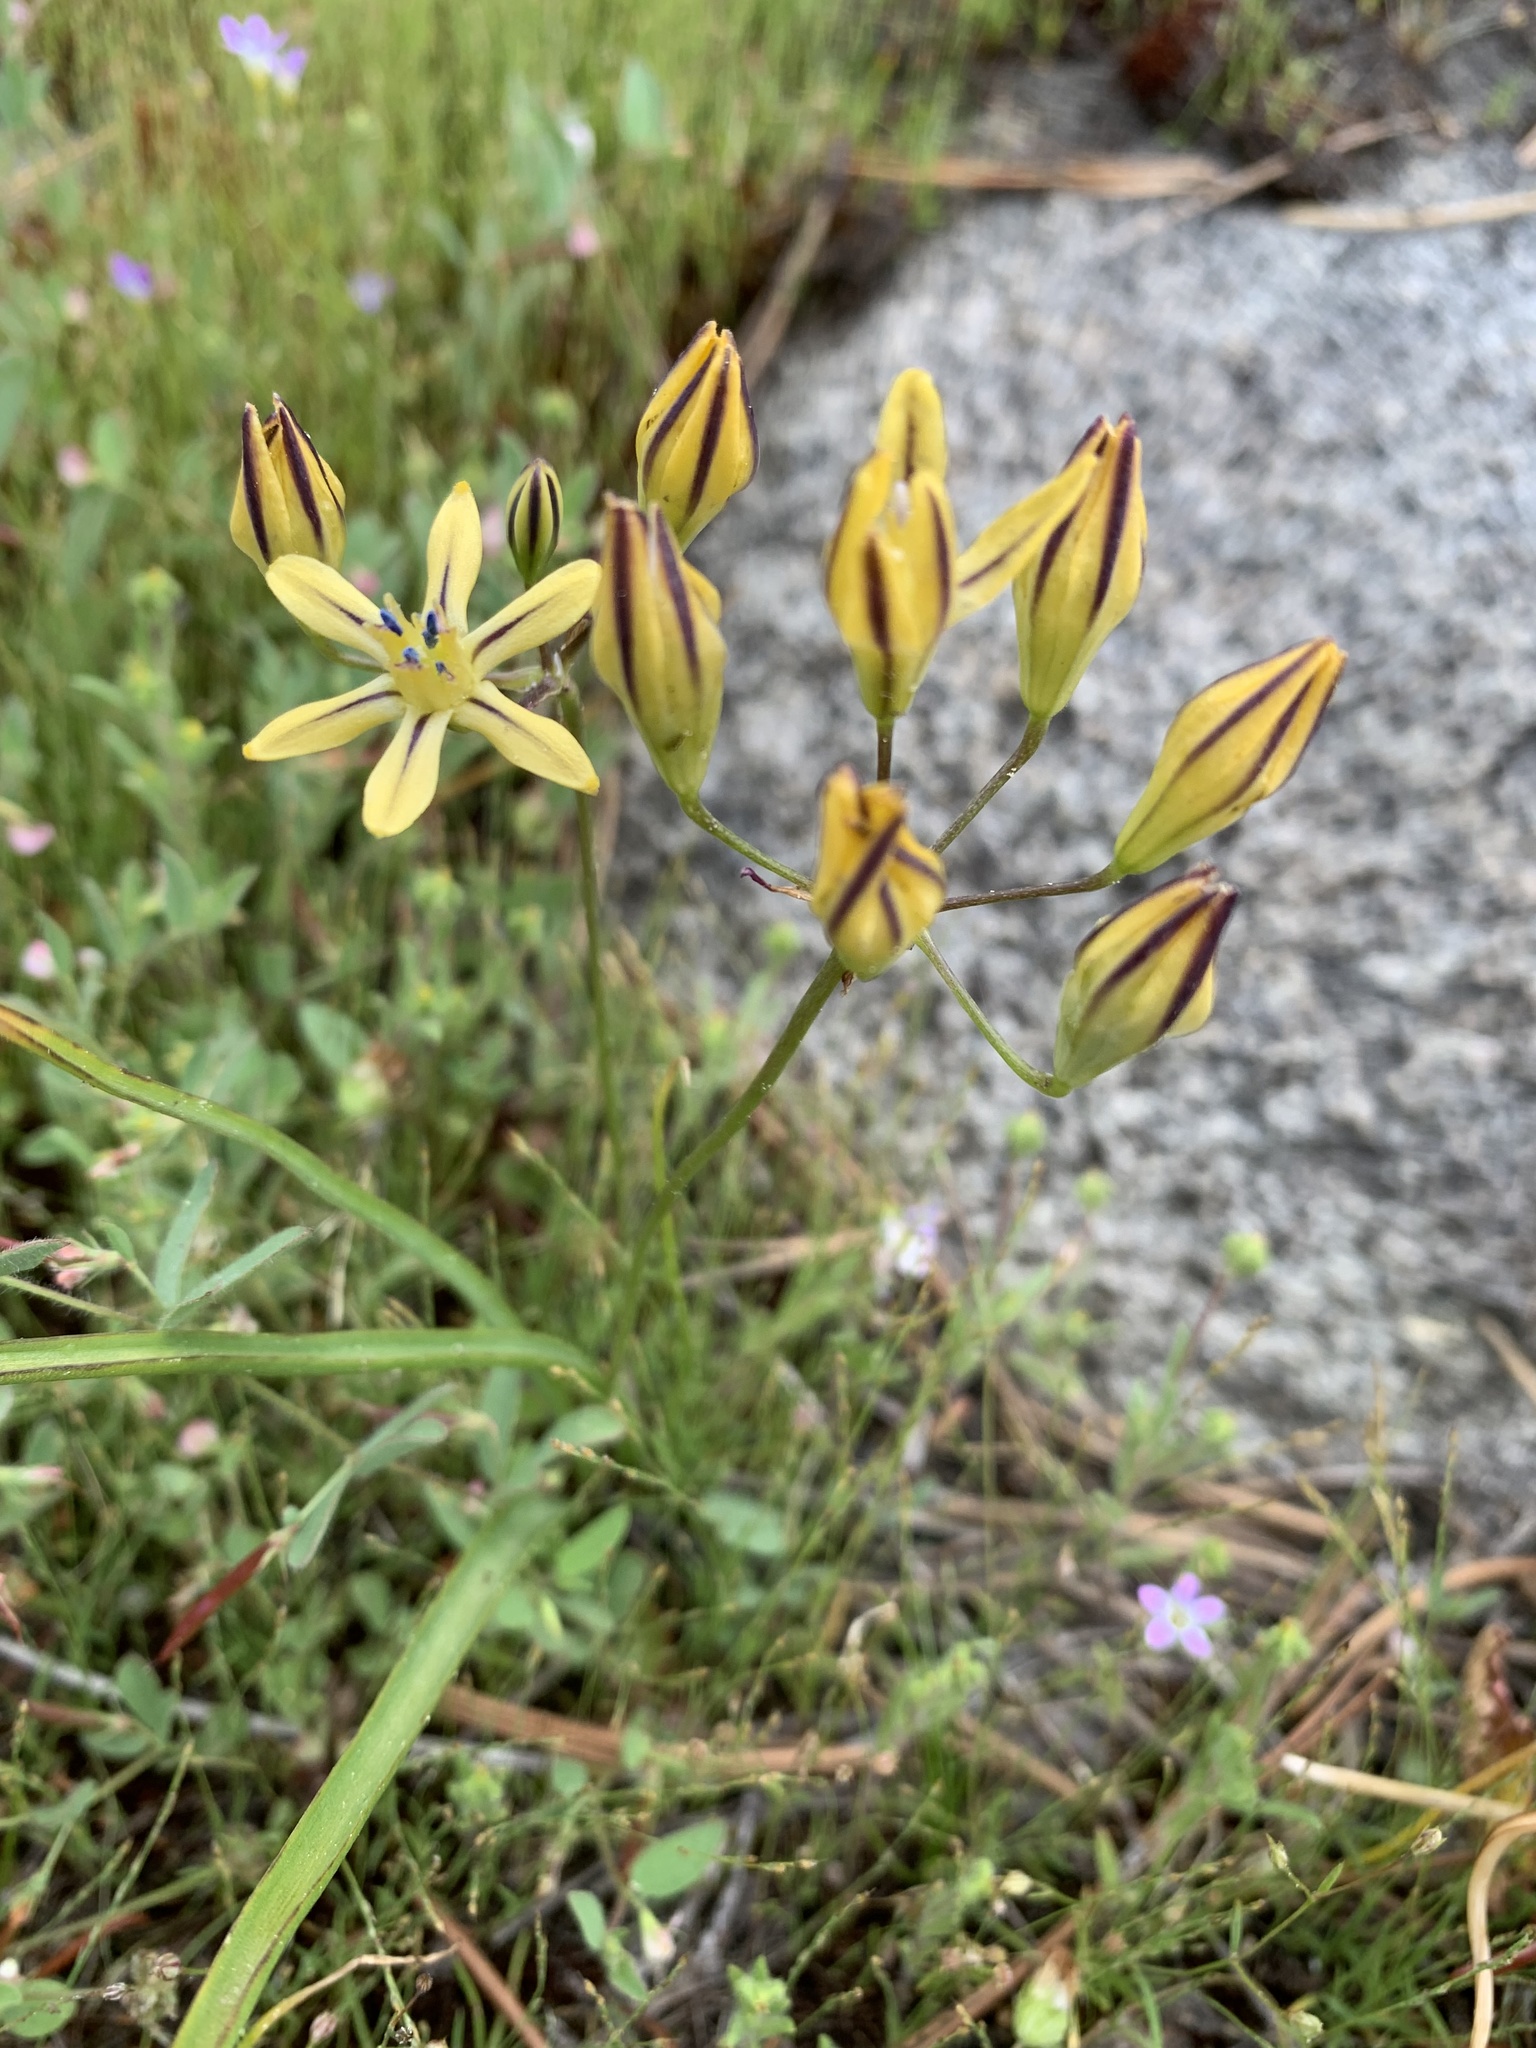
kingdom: Plantae
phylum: Tracheophyta
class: Liliopsida
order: Asparagales
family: Asparagaceae
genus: Triteleia
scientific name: Triteleia ixioides
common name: Yellow-brodiaea
